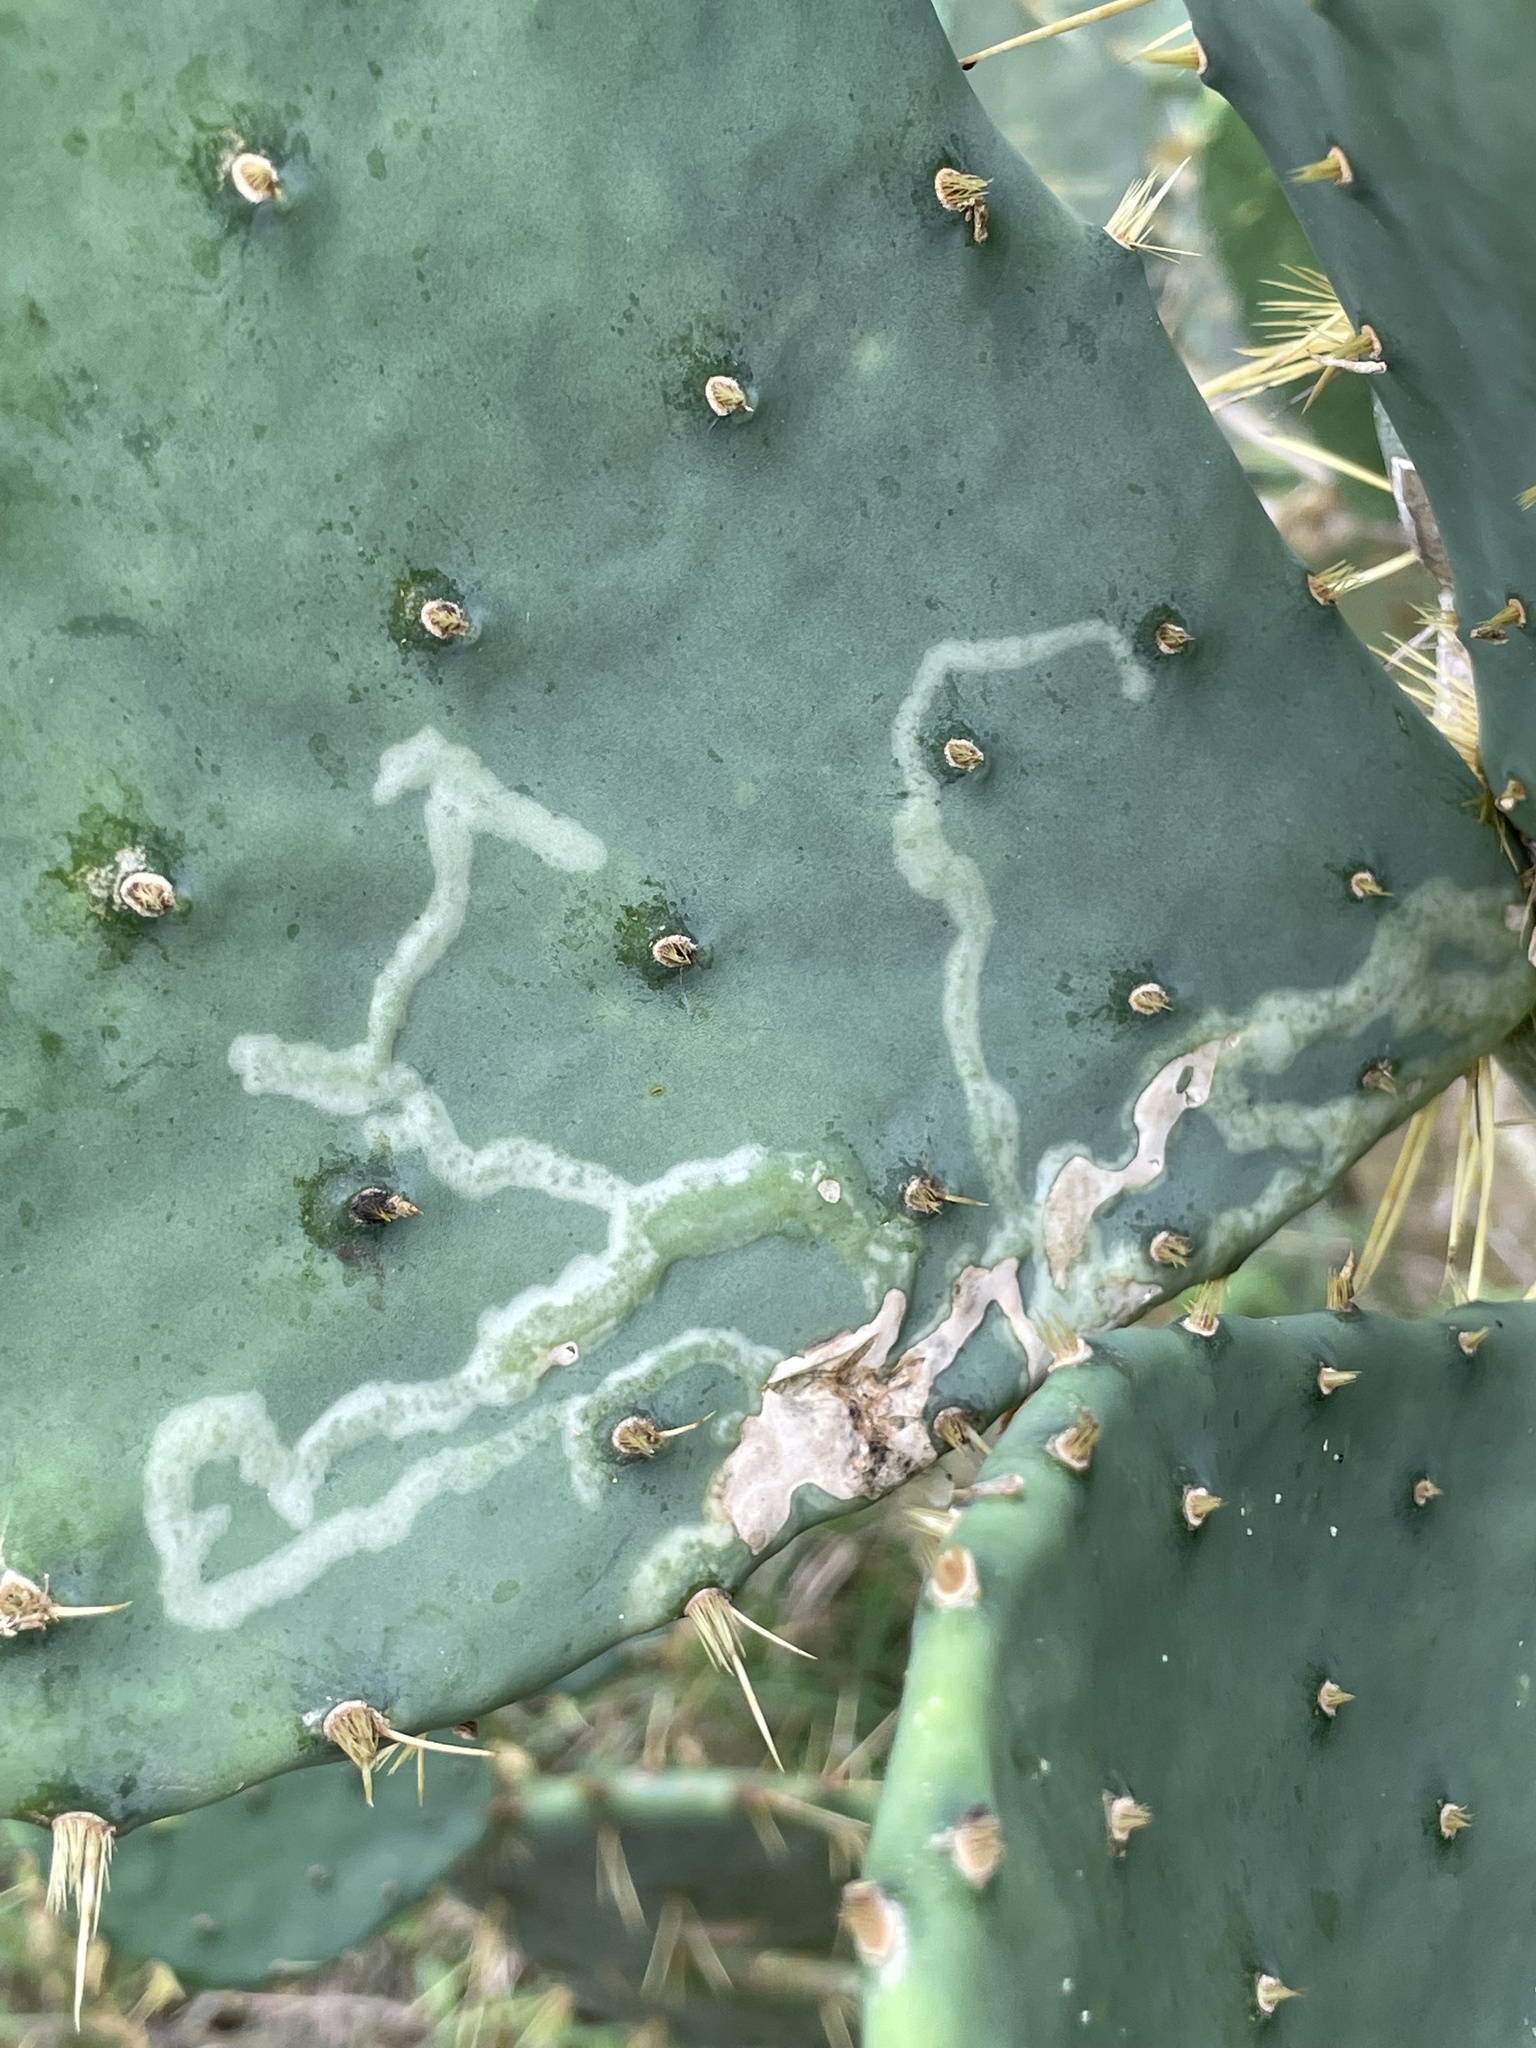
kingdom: Animalia
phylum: Arthropoda
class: Insecta
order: Lepidoptera
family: Gracillariidae
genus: Marmara
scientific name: Marmara opuntiella
